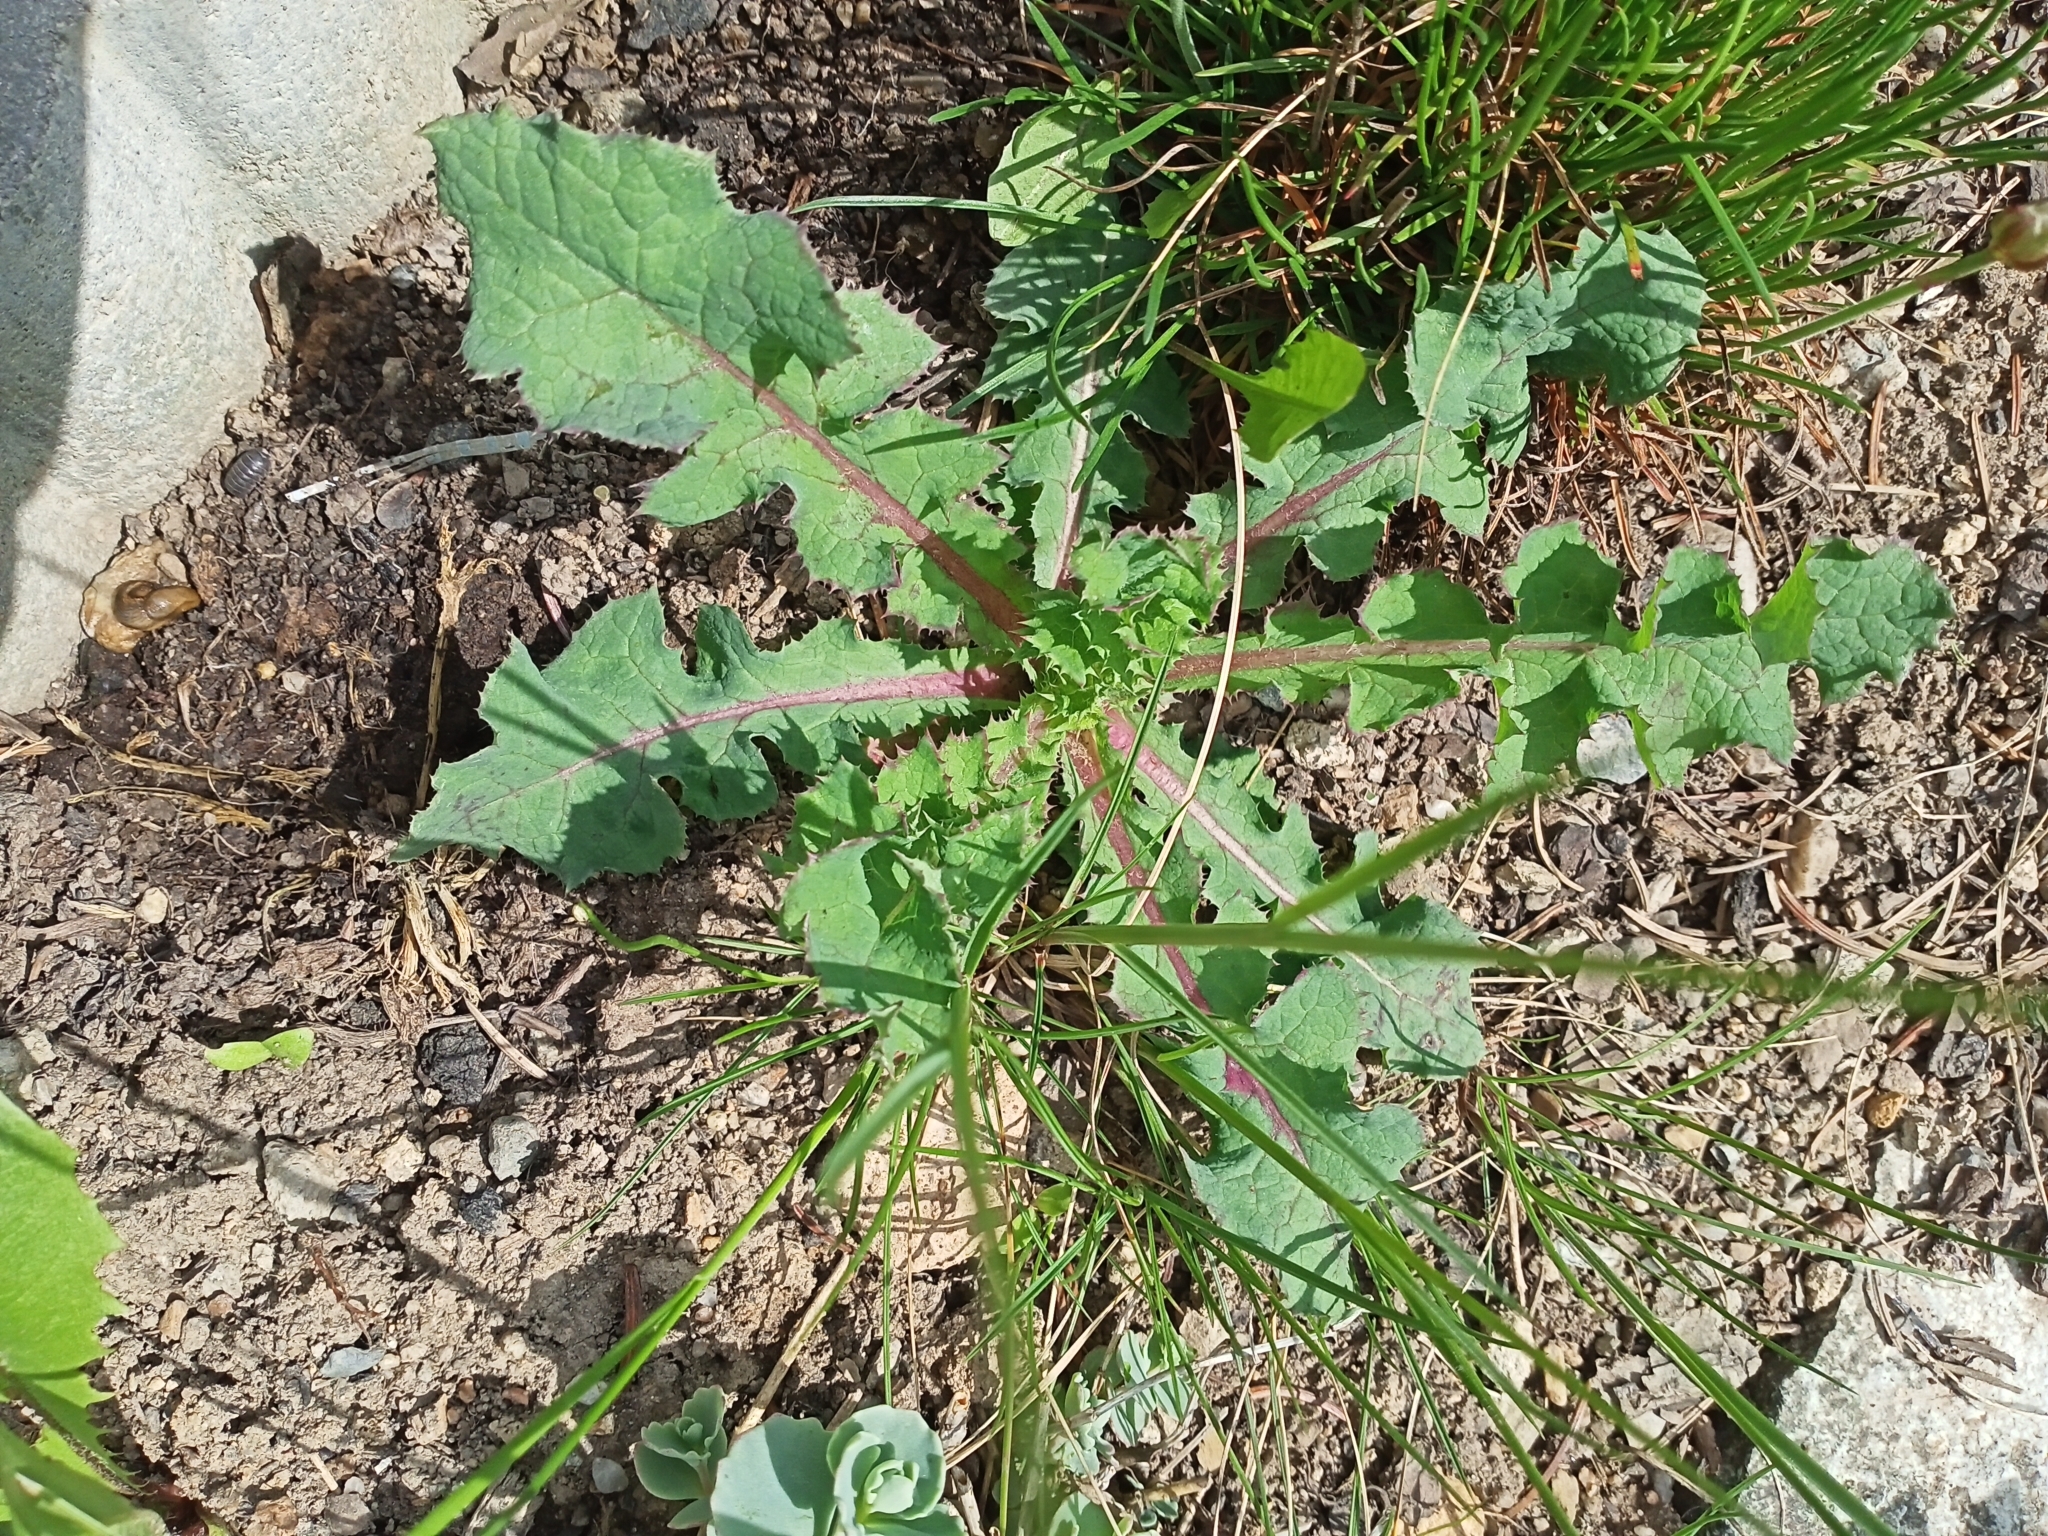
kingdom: Plantae
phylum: Tracheophyta
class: Magnoliopsida
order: Asterales
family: Asteraceae
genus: Sonchus
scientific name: Sonchus oleraceus
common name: Common sowthistle
